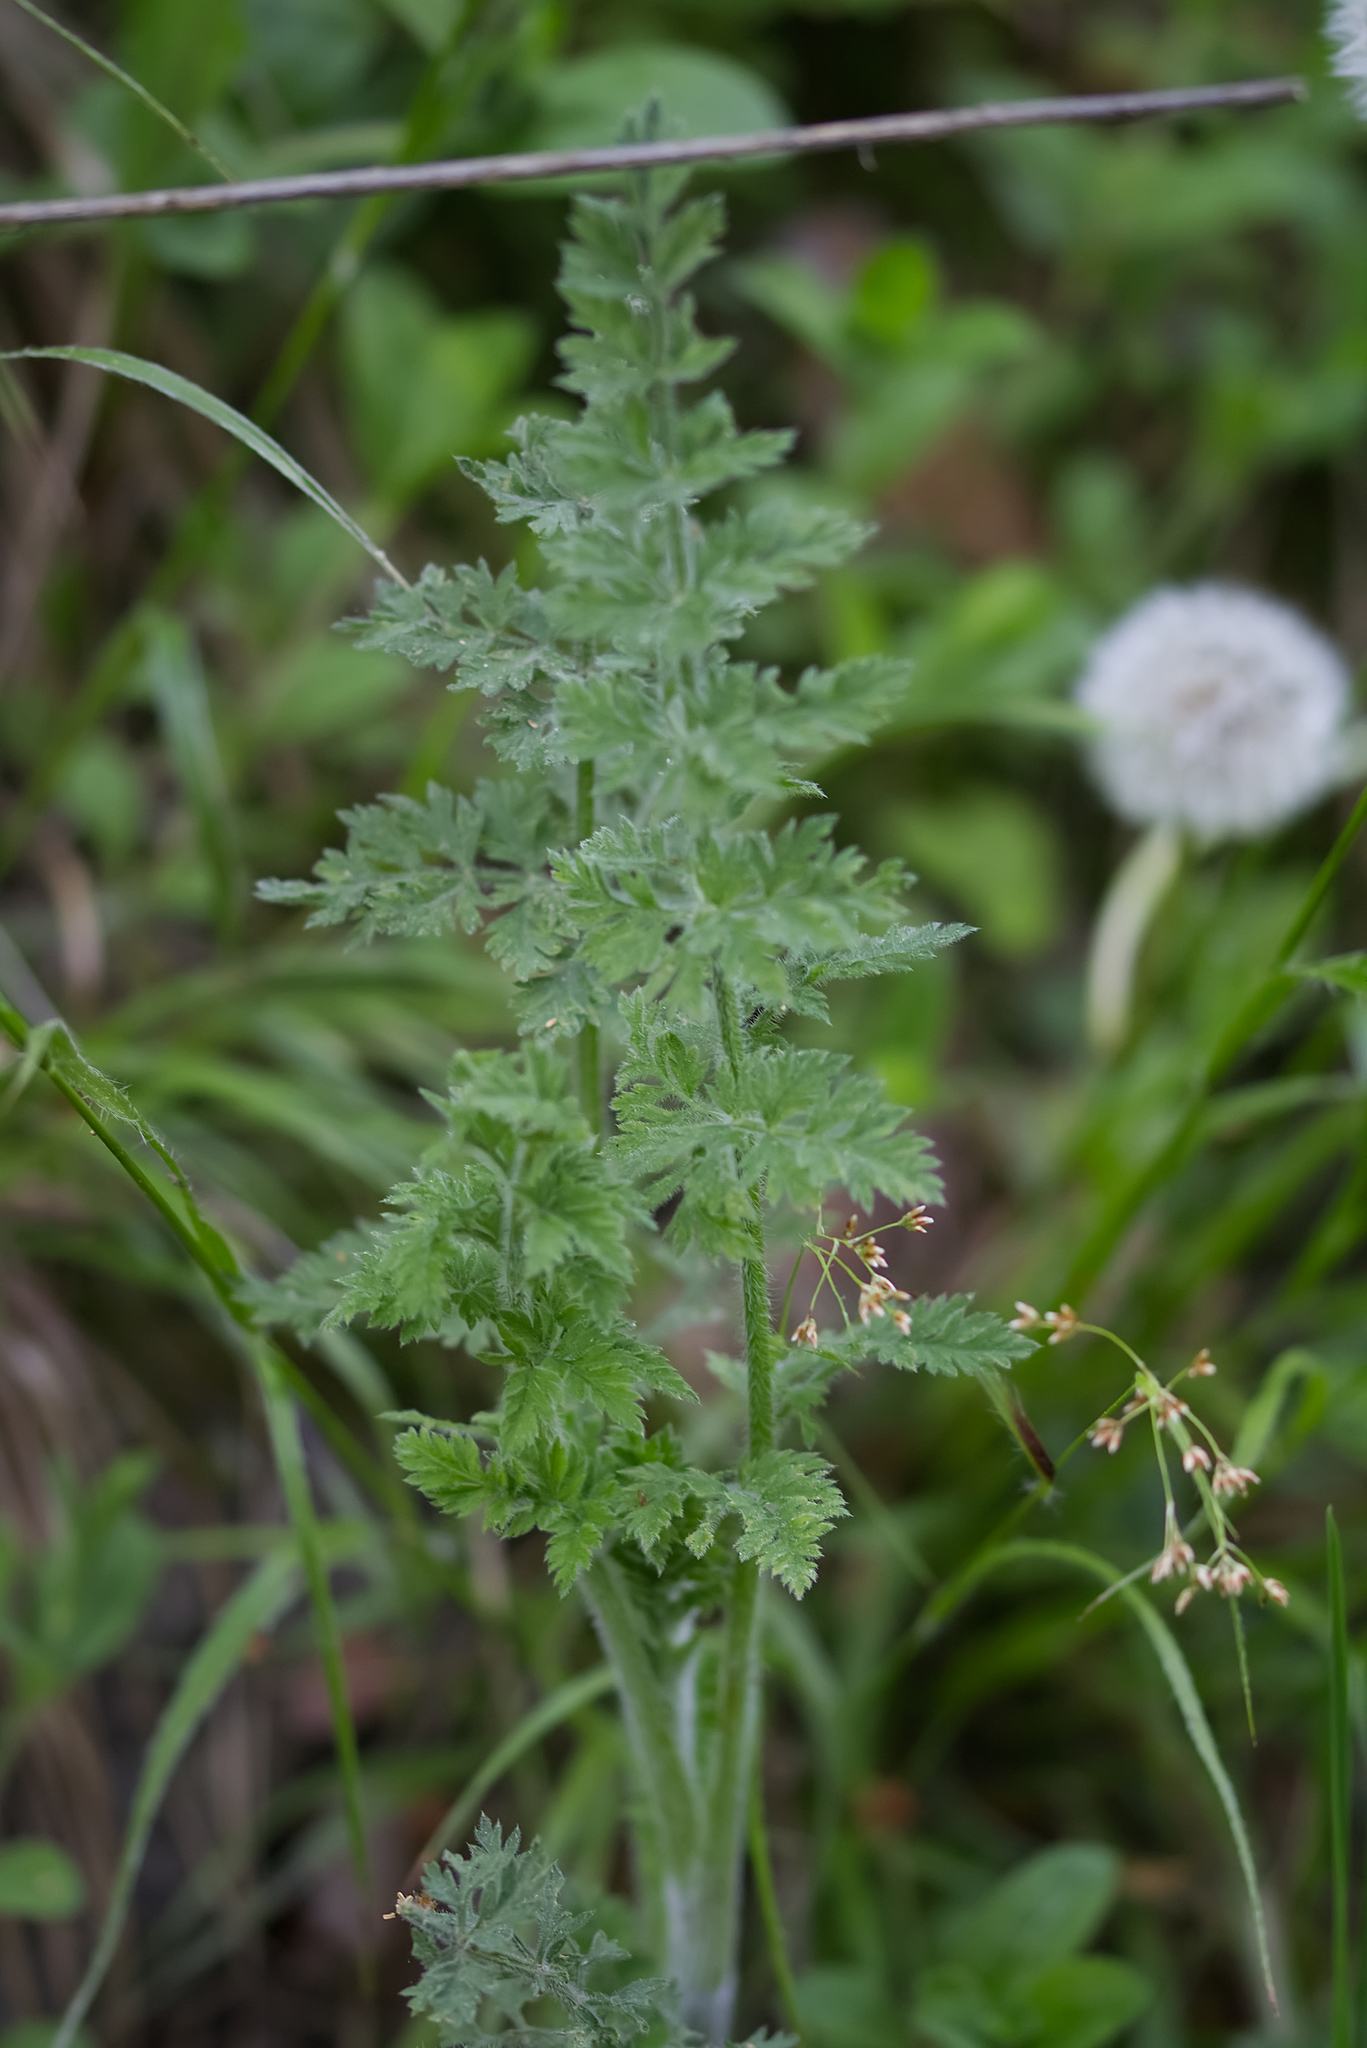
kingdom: Plantae
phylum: Tracheophyta
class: Magnoliopsida
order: Apiales
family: Apiaceae
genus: Daucus
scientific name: Daucus carota
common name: Wild carrot
